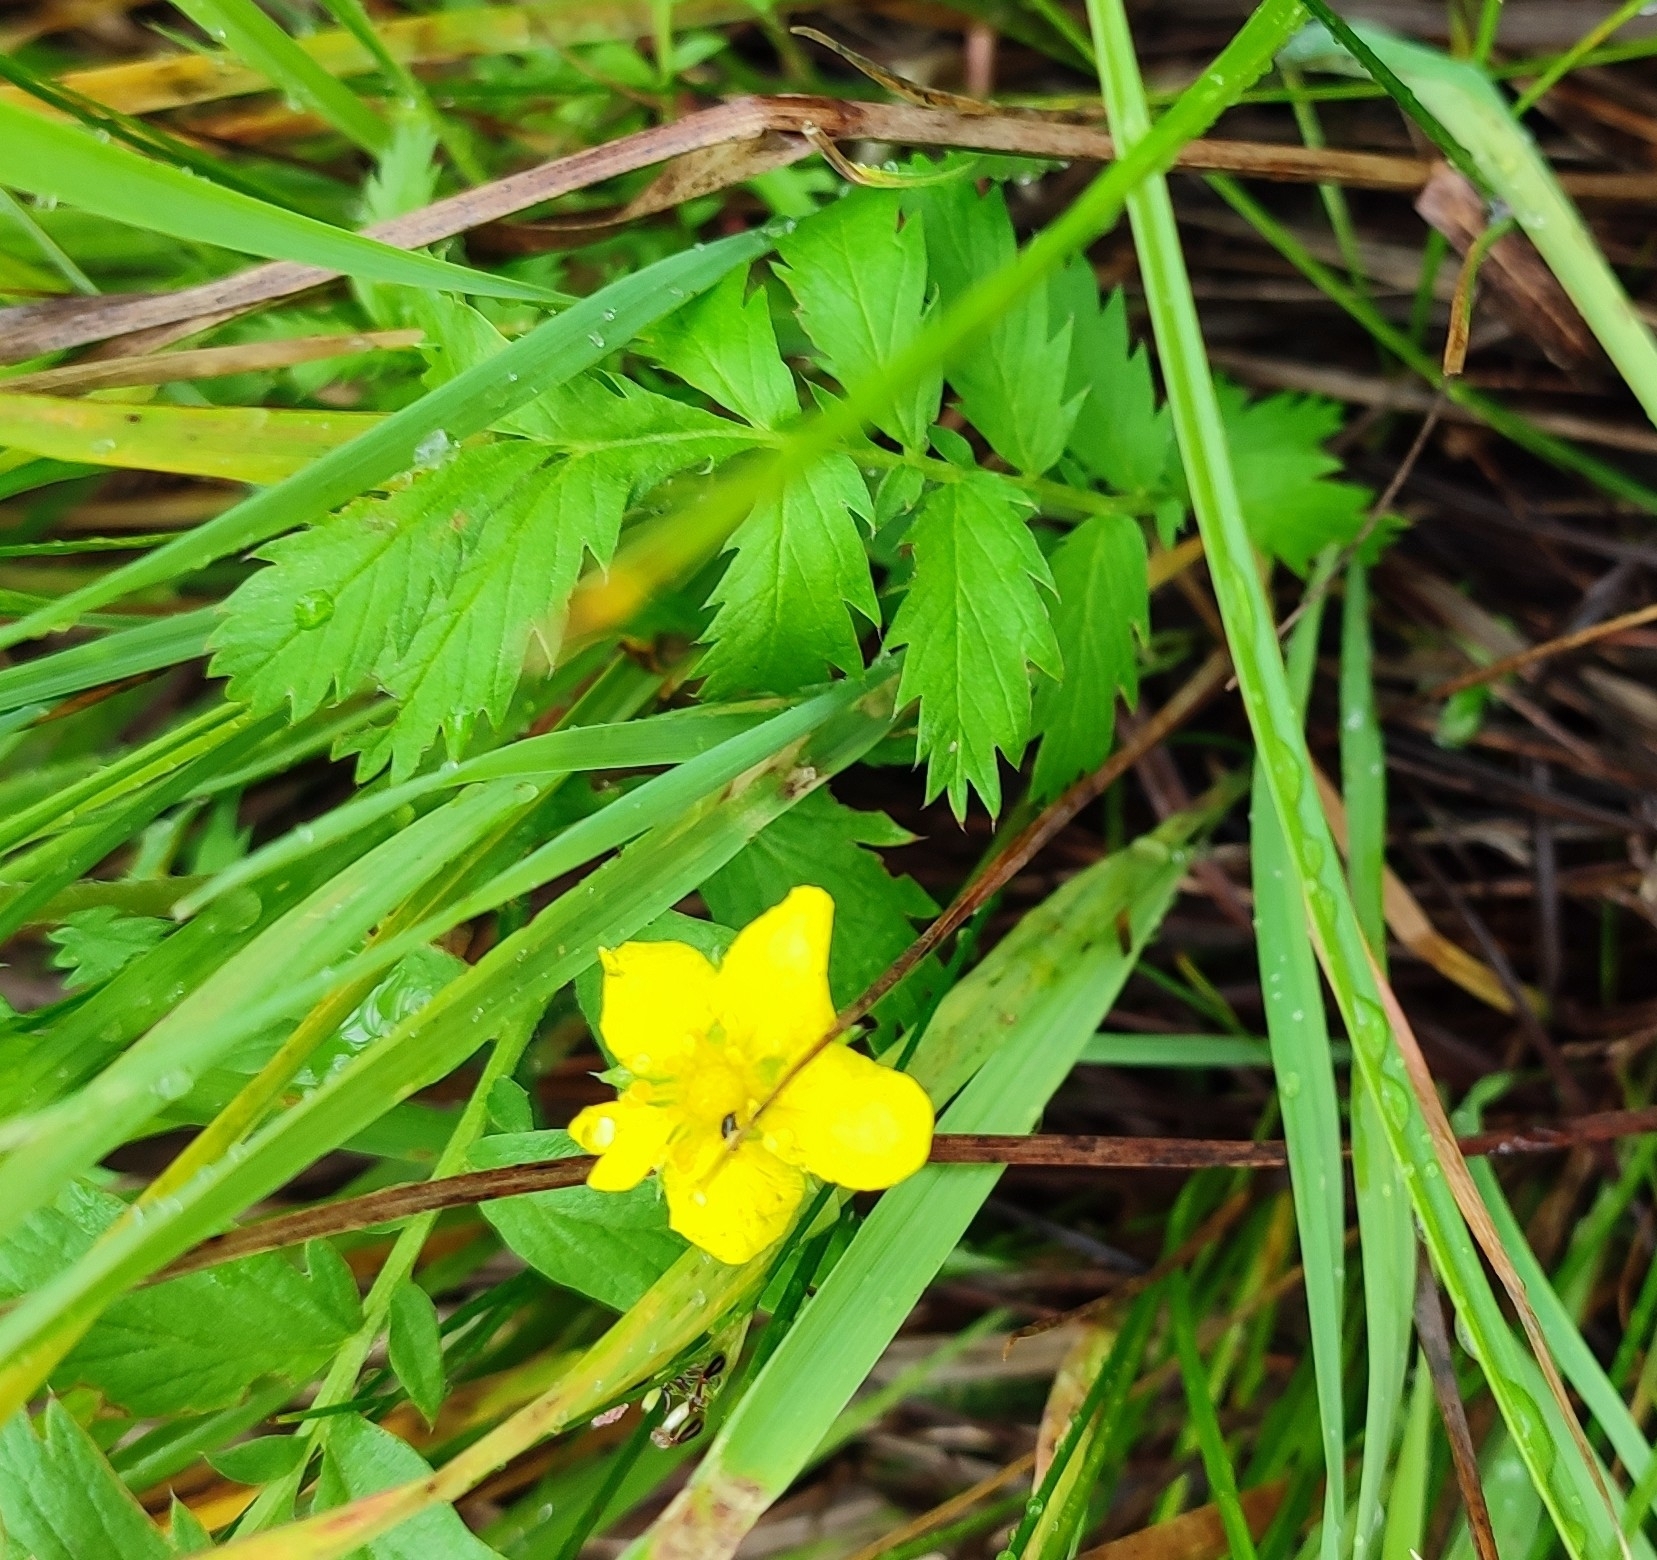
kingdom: Plantae
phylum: Tracheophyta
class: Magnoliopsida
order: Rosales
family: Rosaceae
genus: Argentina
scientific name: Argentina anserina
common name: Common silverweed
